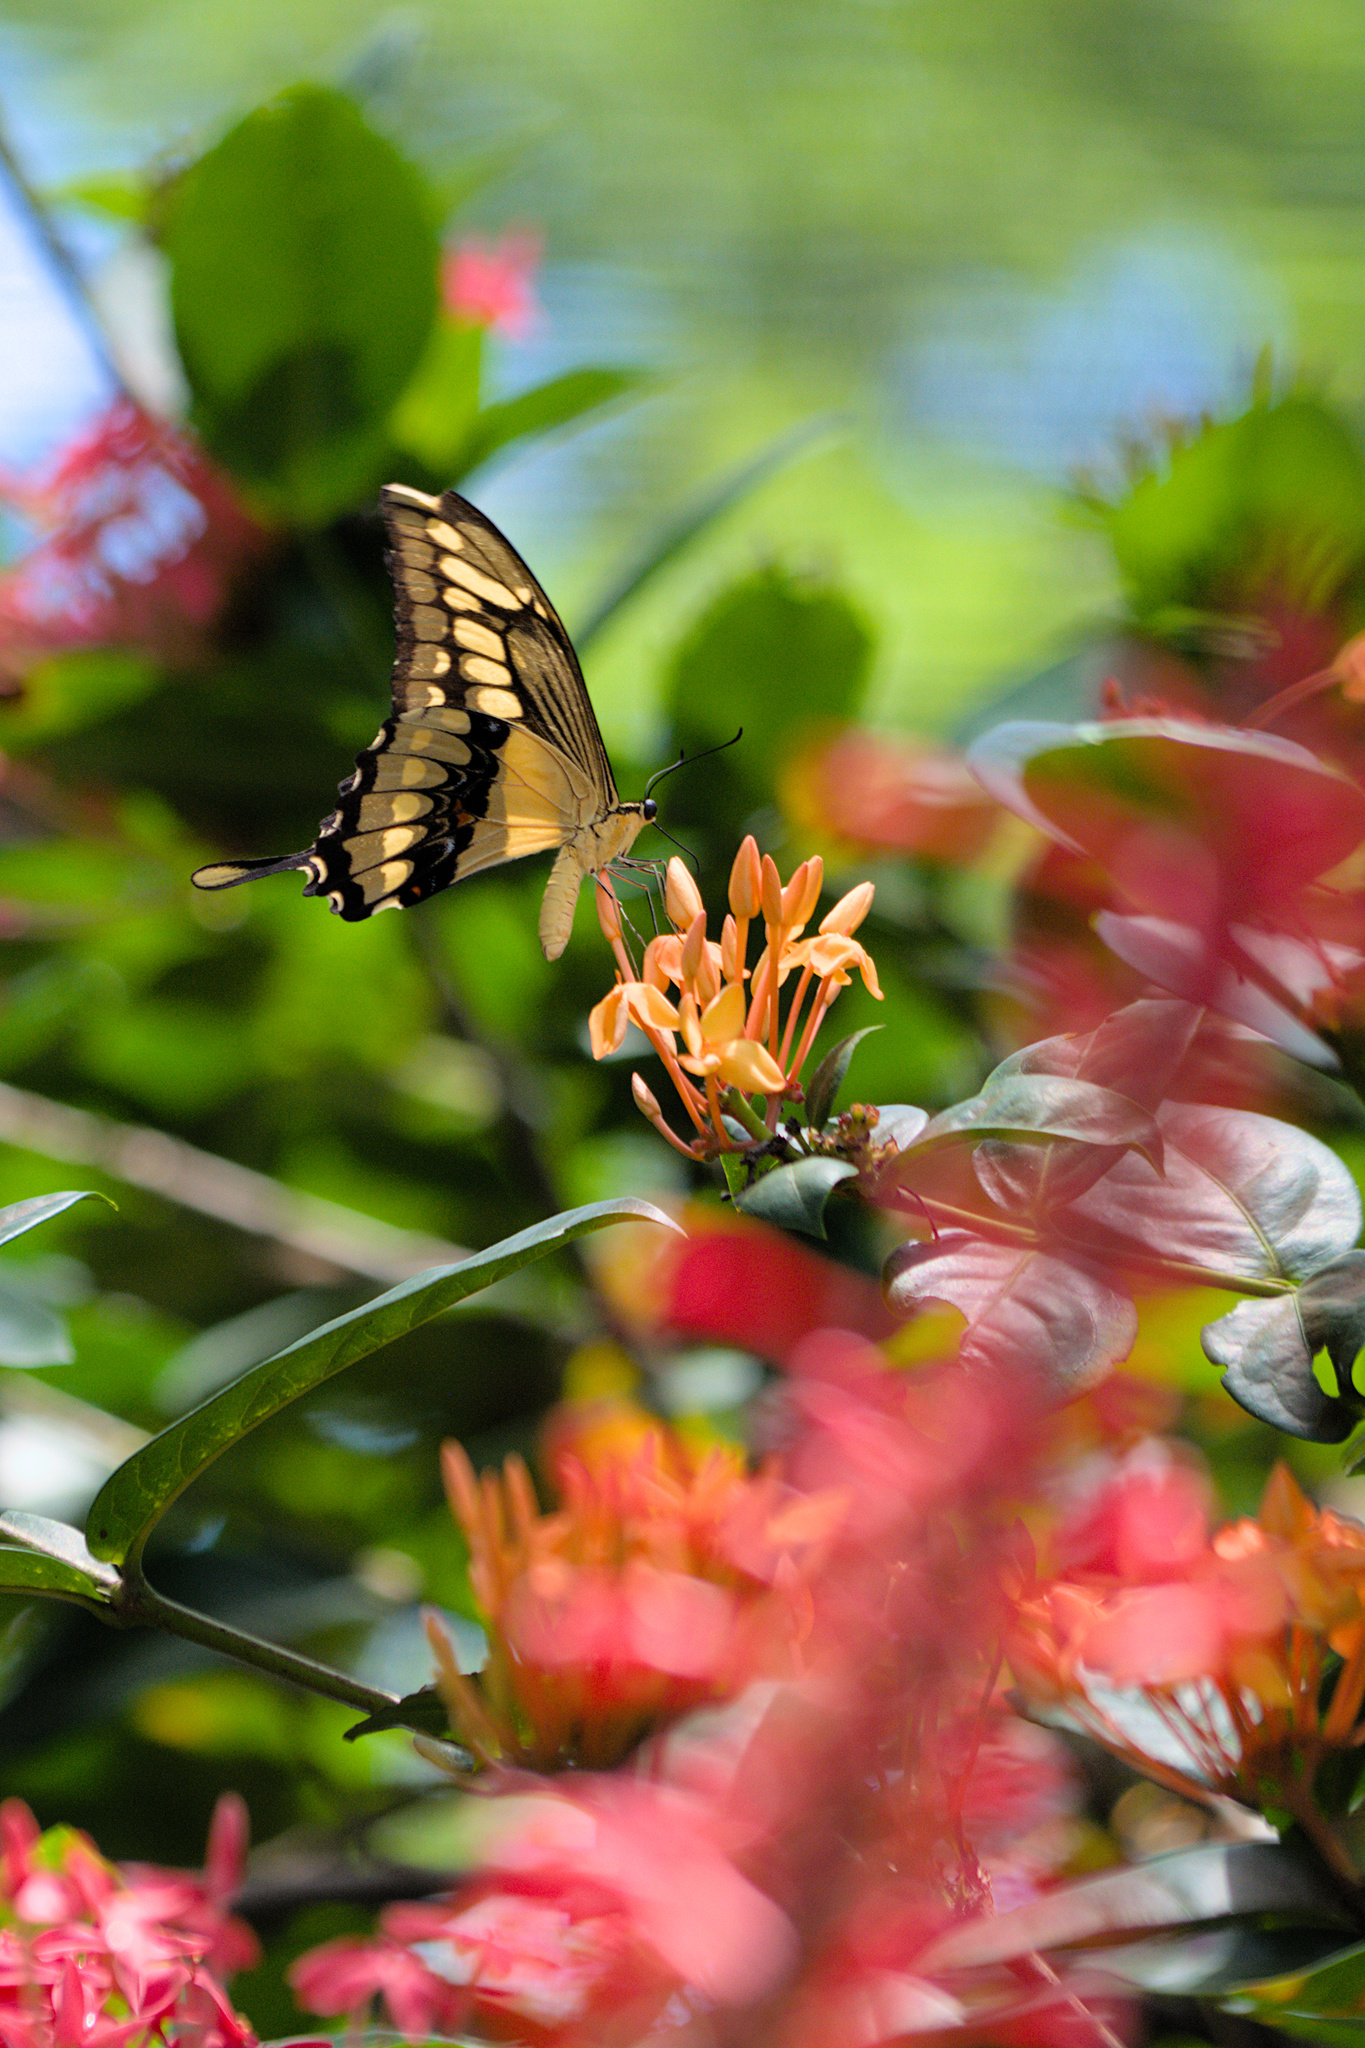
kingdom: Animalia
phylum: Arthropoda
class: Insecta
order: Lepidoptera
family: Papilionidae
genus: Papilio
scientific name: Papilio thoas
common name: King swallowtail
